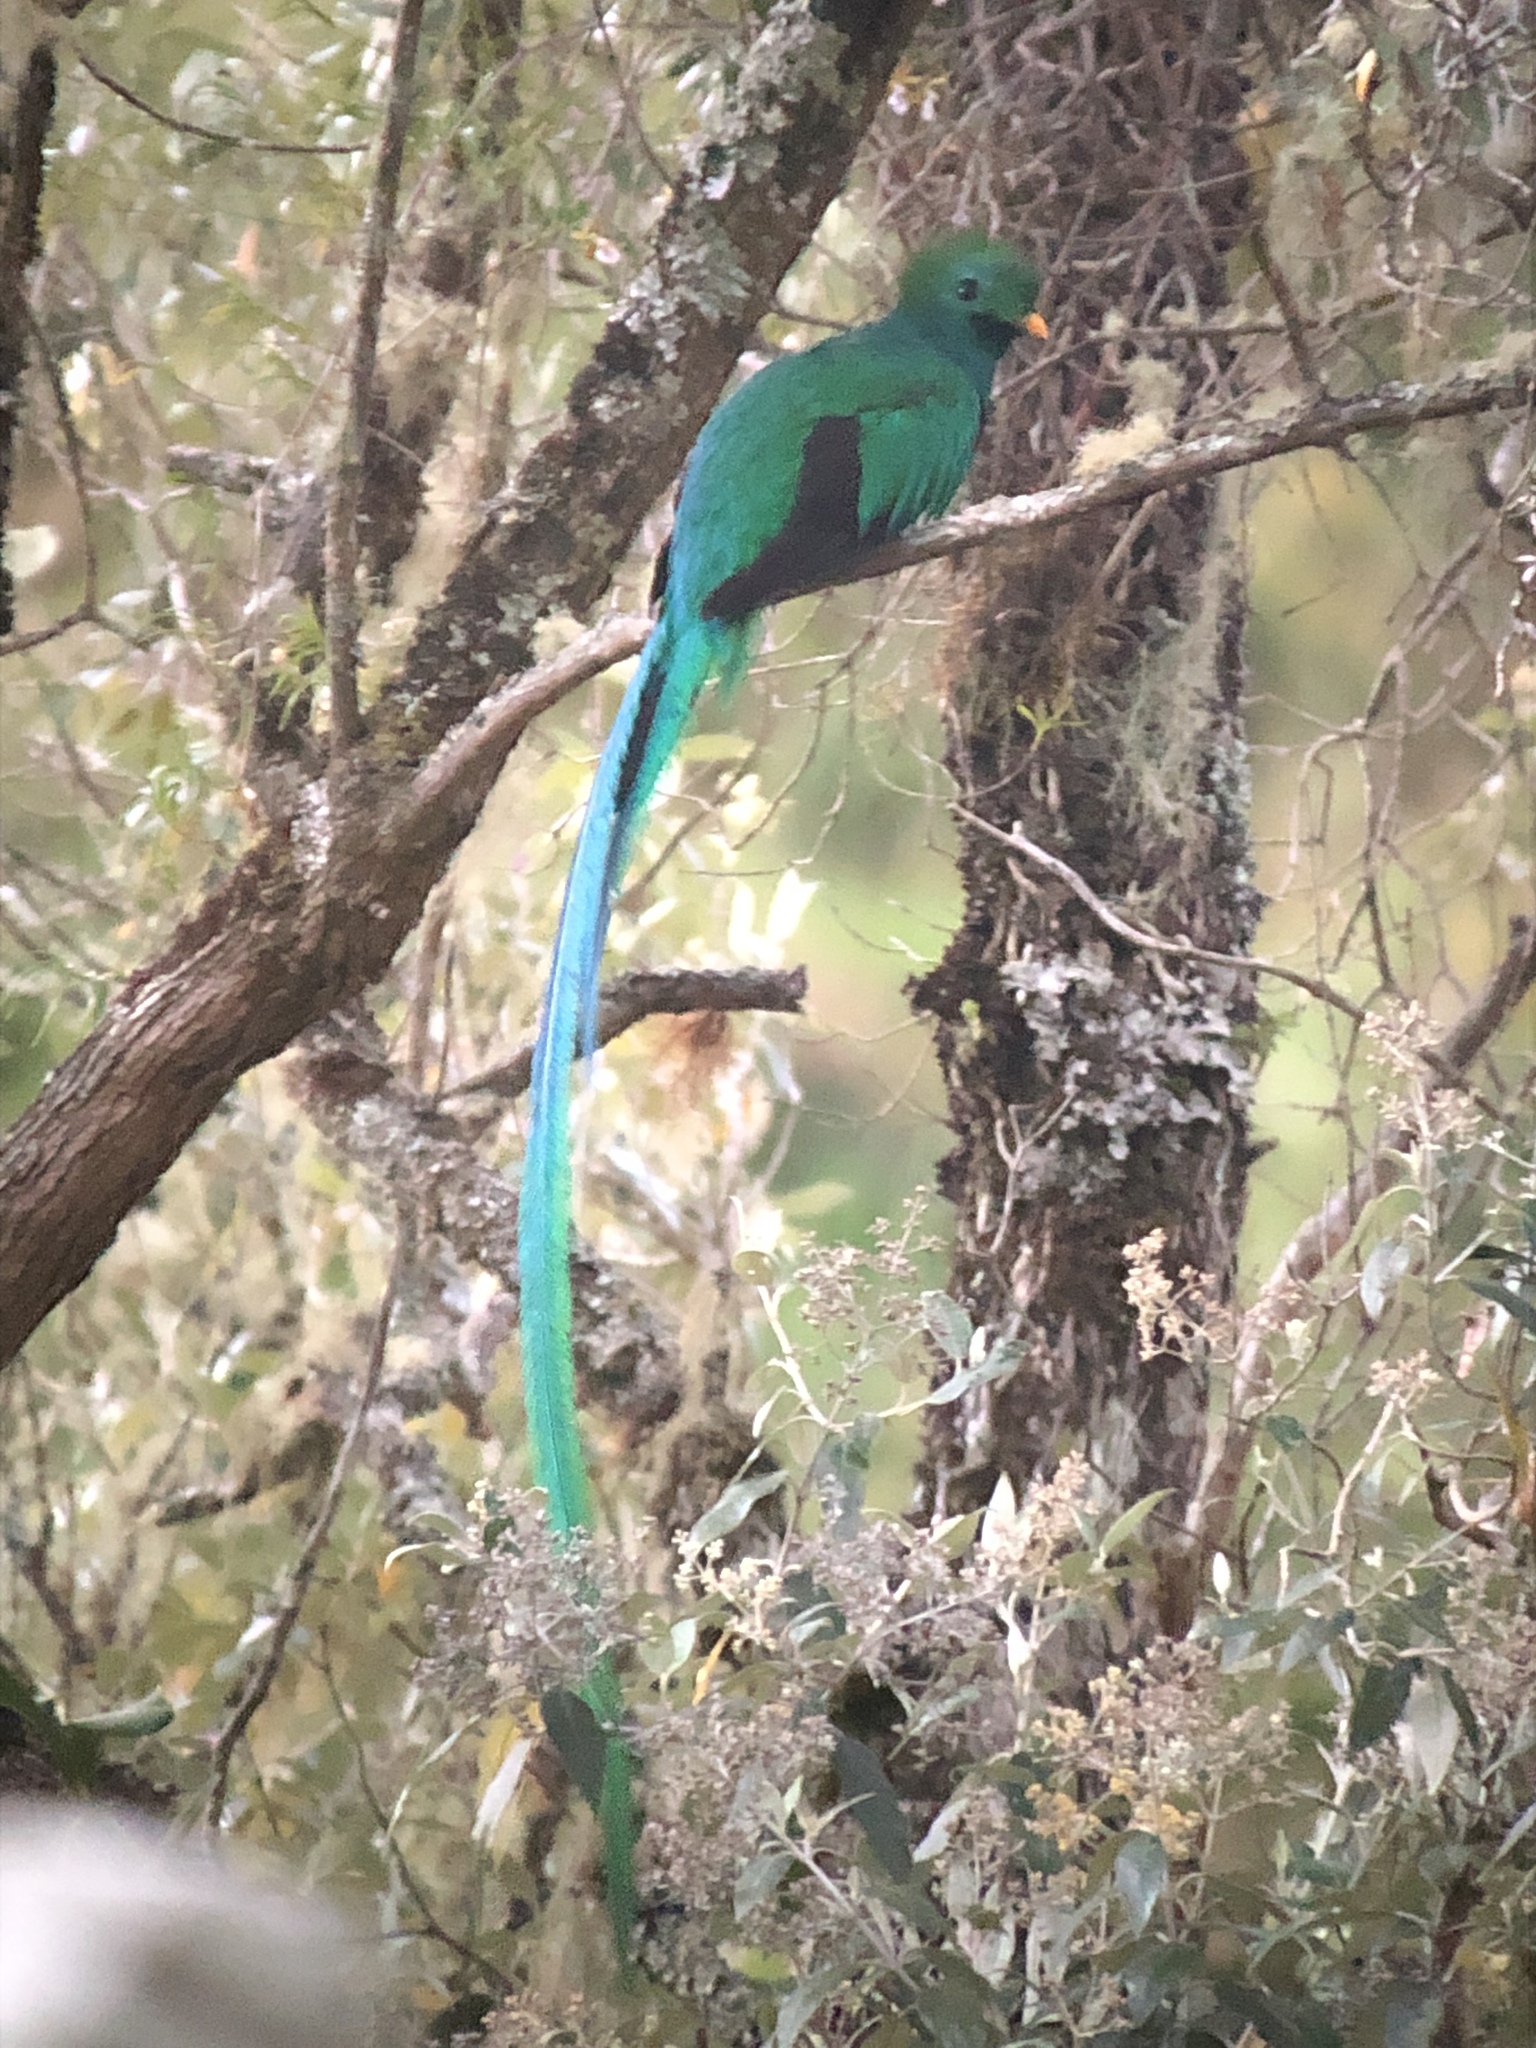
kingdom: Animalia
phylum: Chordata
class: Aves
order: Trogoniformes
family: Trogonidae
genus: Pharomachrus
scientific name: Pharomachrus mocinno
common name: Resplendent quetzal
